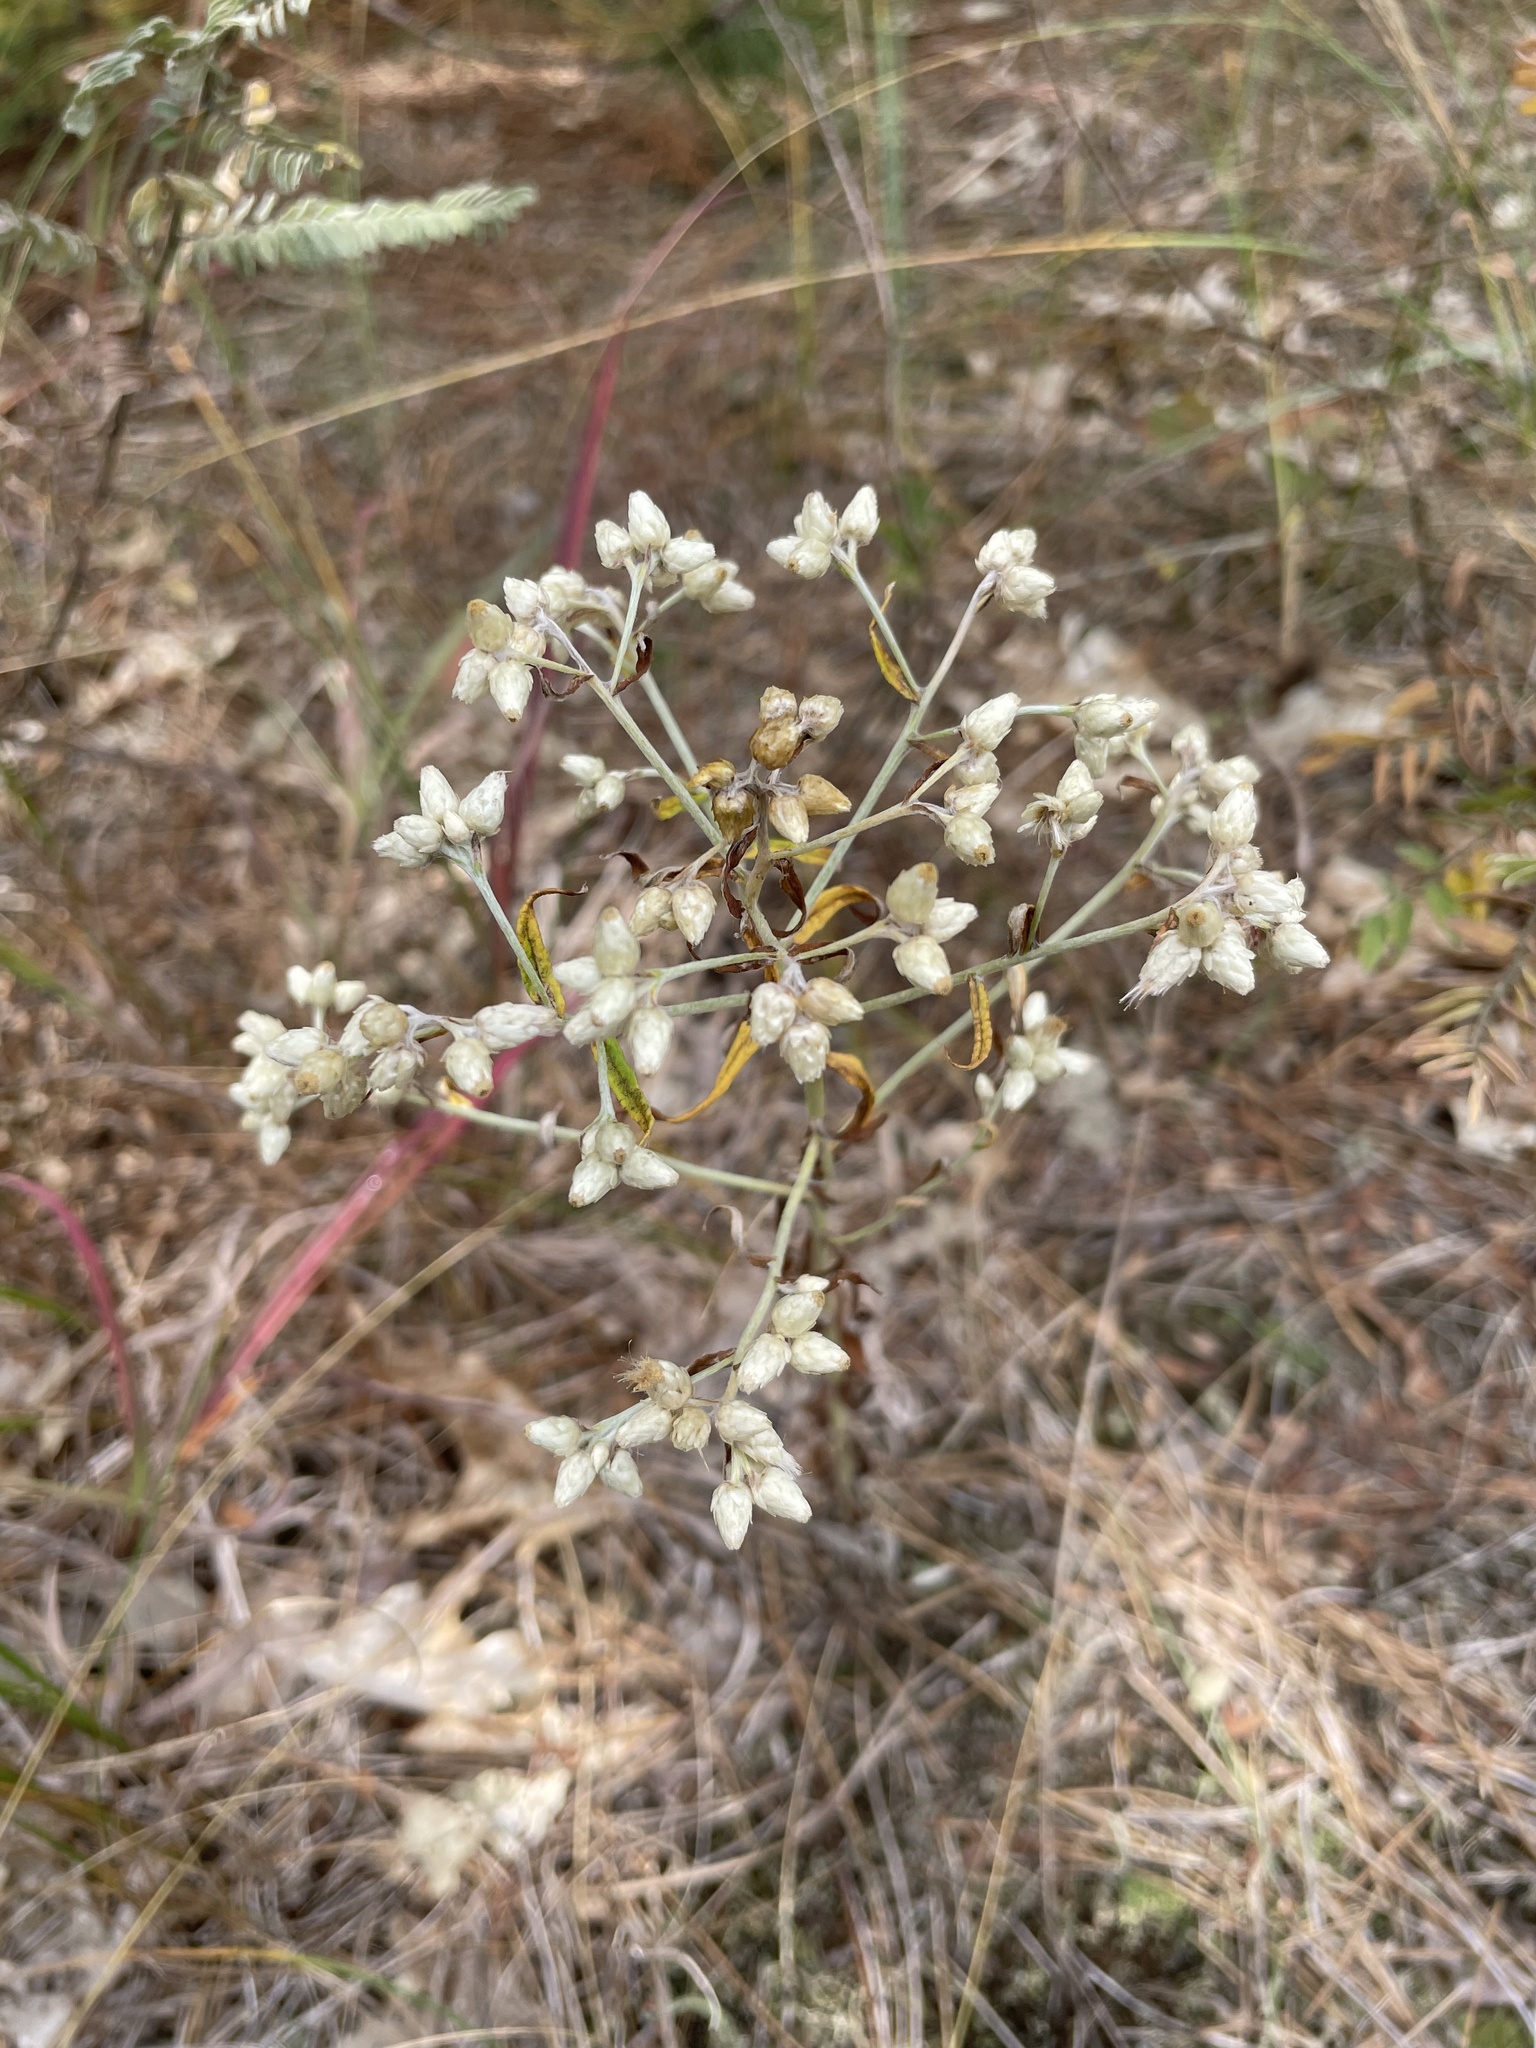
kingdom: Plantae
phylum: Tracheophyta
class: Magnoliopsida
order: Asterales
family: Asteraceae
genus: Pseudognaphalium
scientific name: Pseudognaphalium obtusifolium
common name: Eastern rabbit-tobacco
